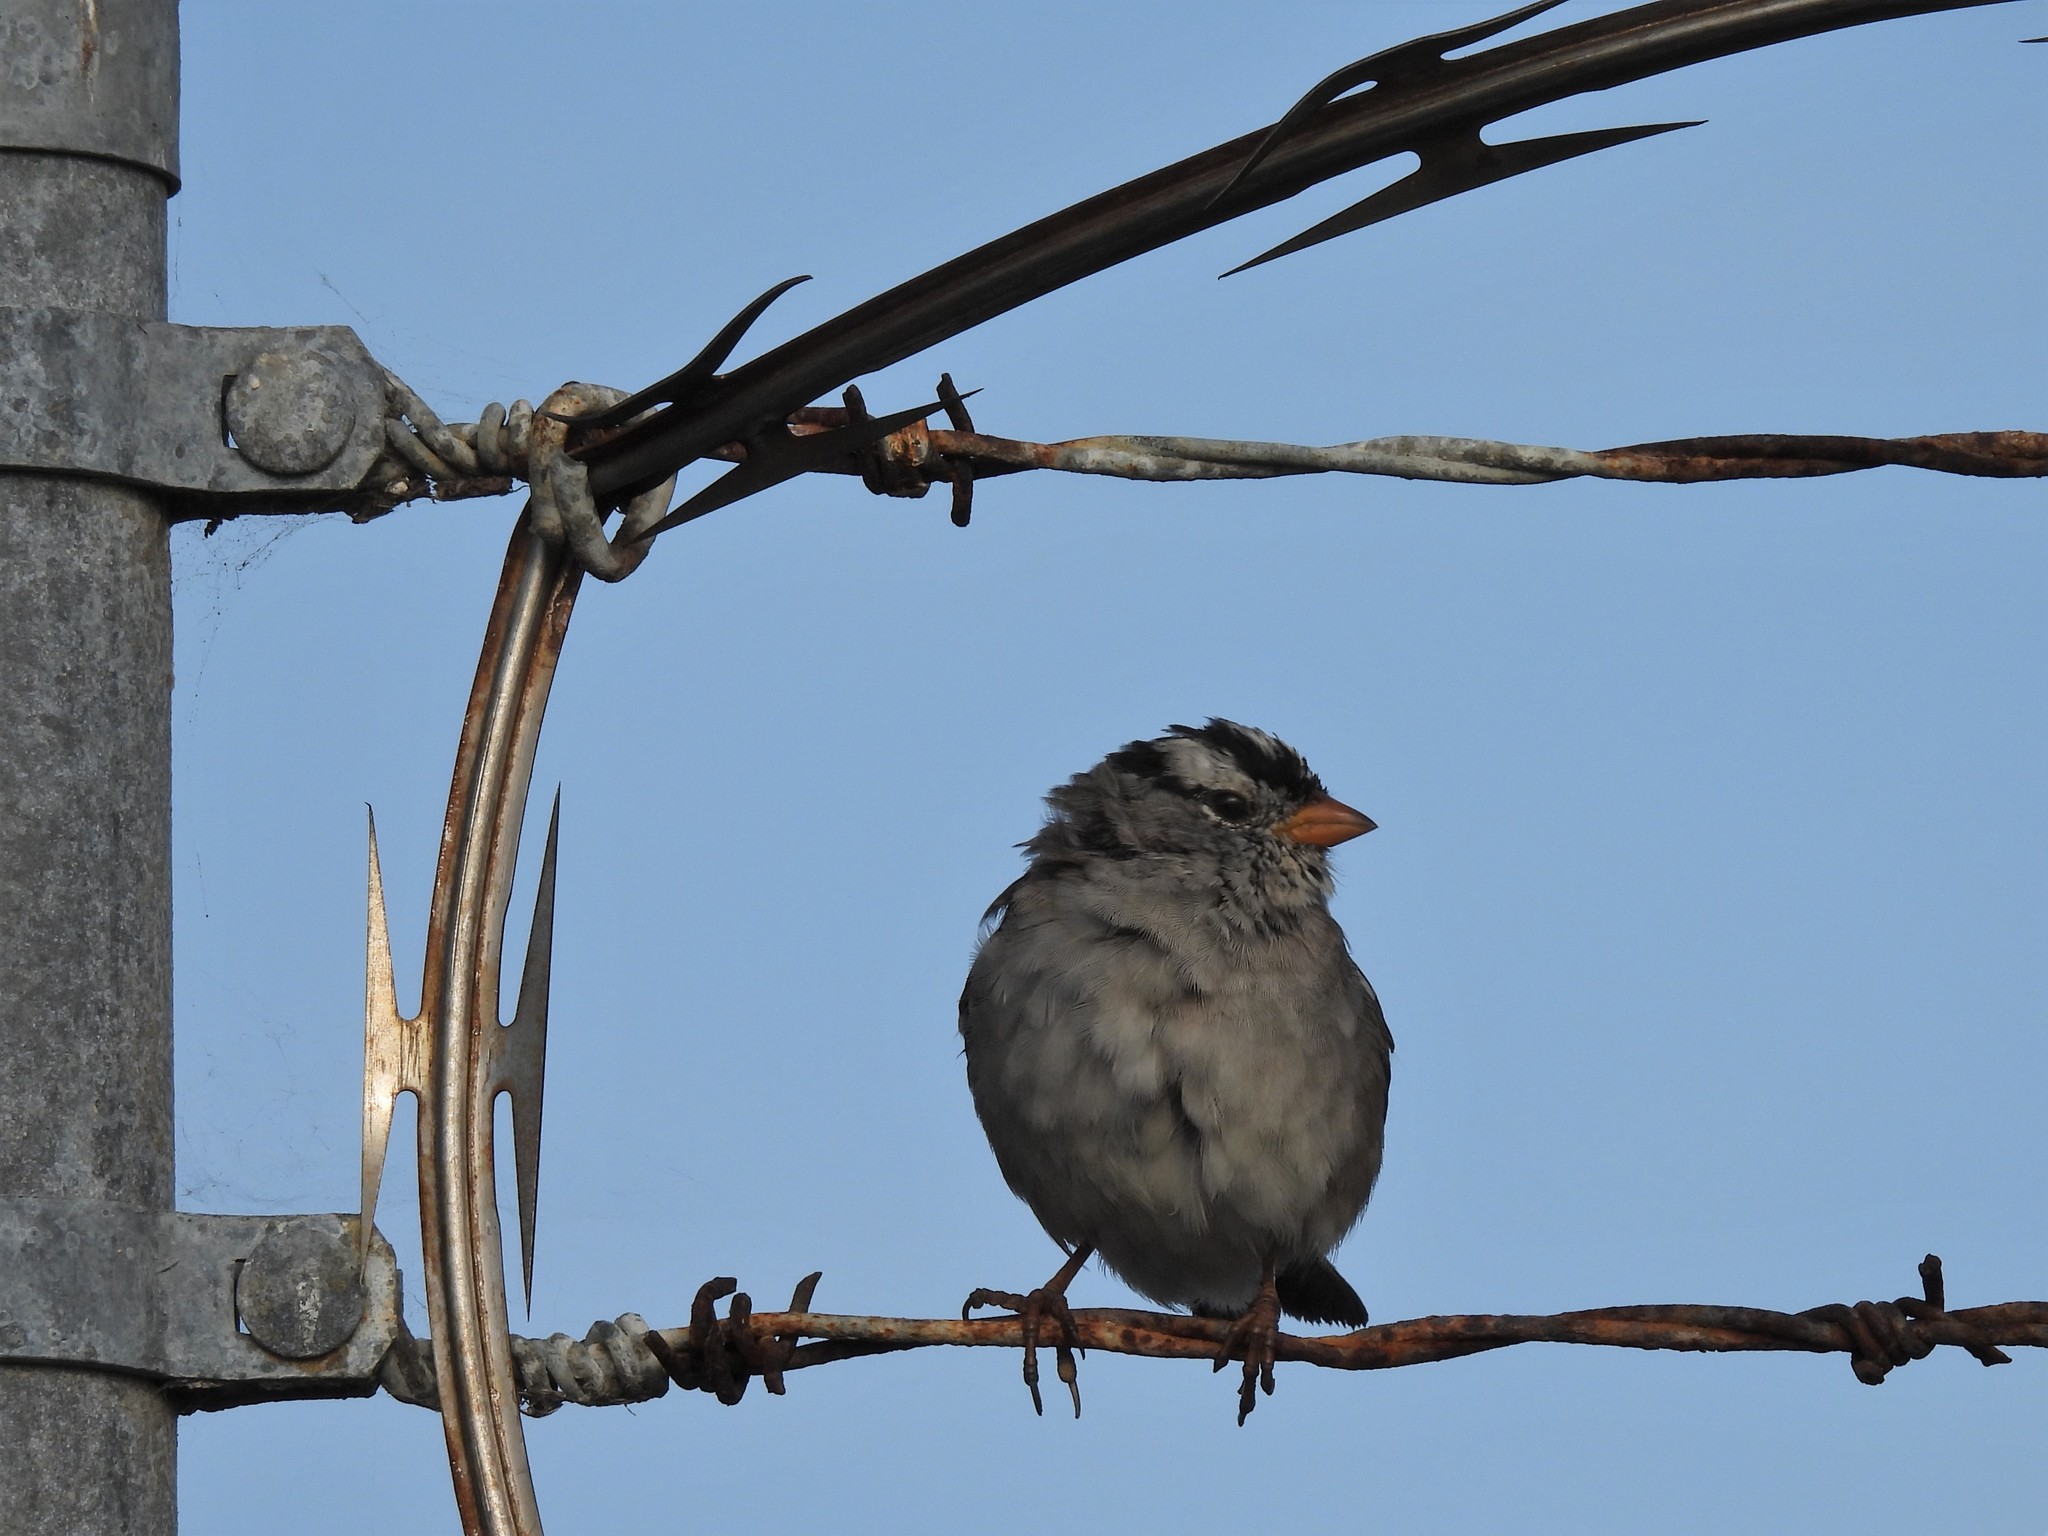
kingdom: Animalia
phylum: Chordata
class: Aves
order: Passeriformes
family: Passerellidae
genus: Zonotrichia
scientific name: Zonotrichia leucophrys
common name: White-crowned sparrow
